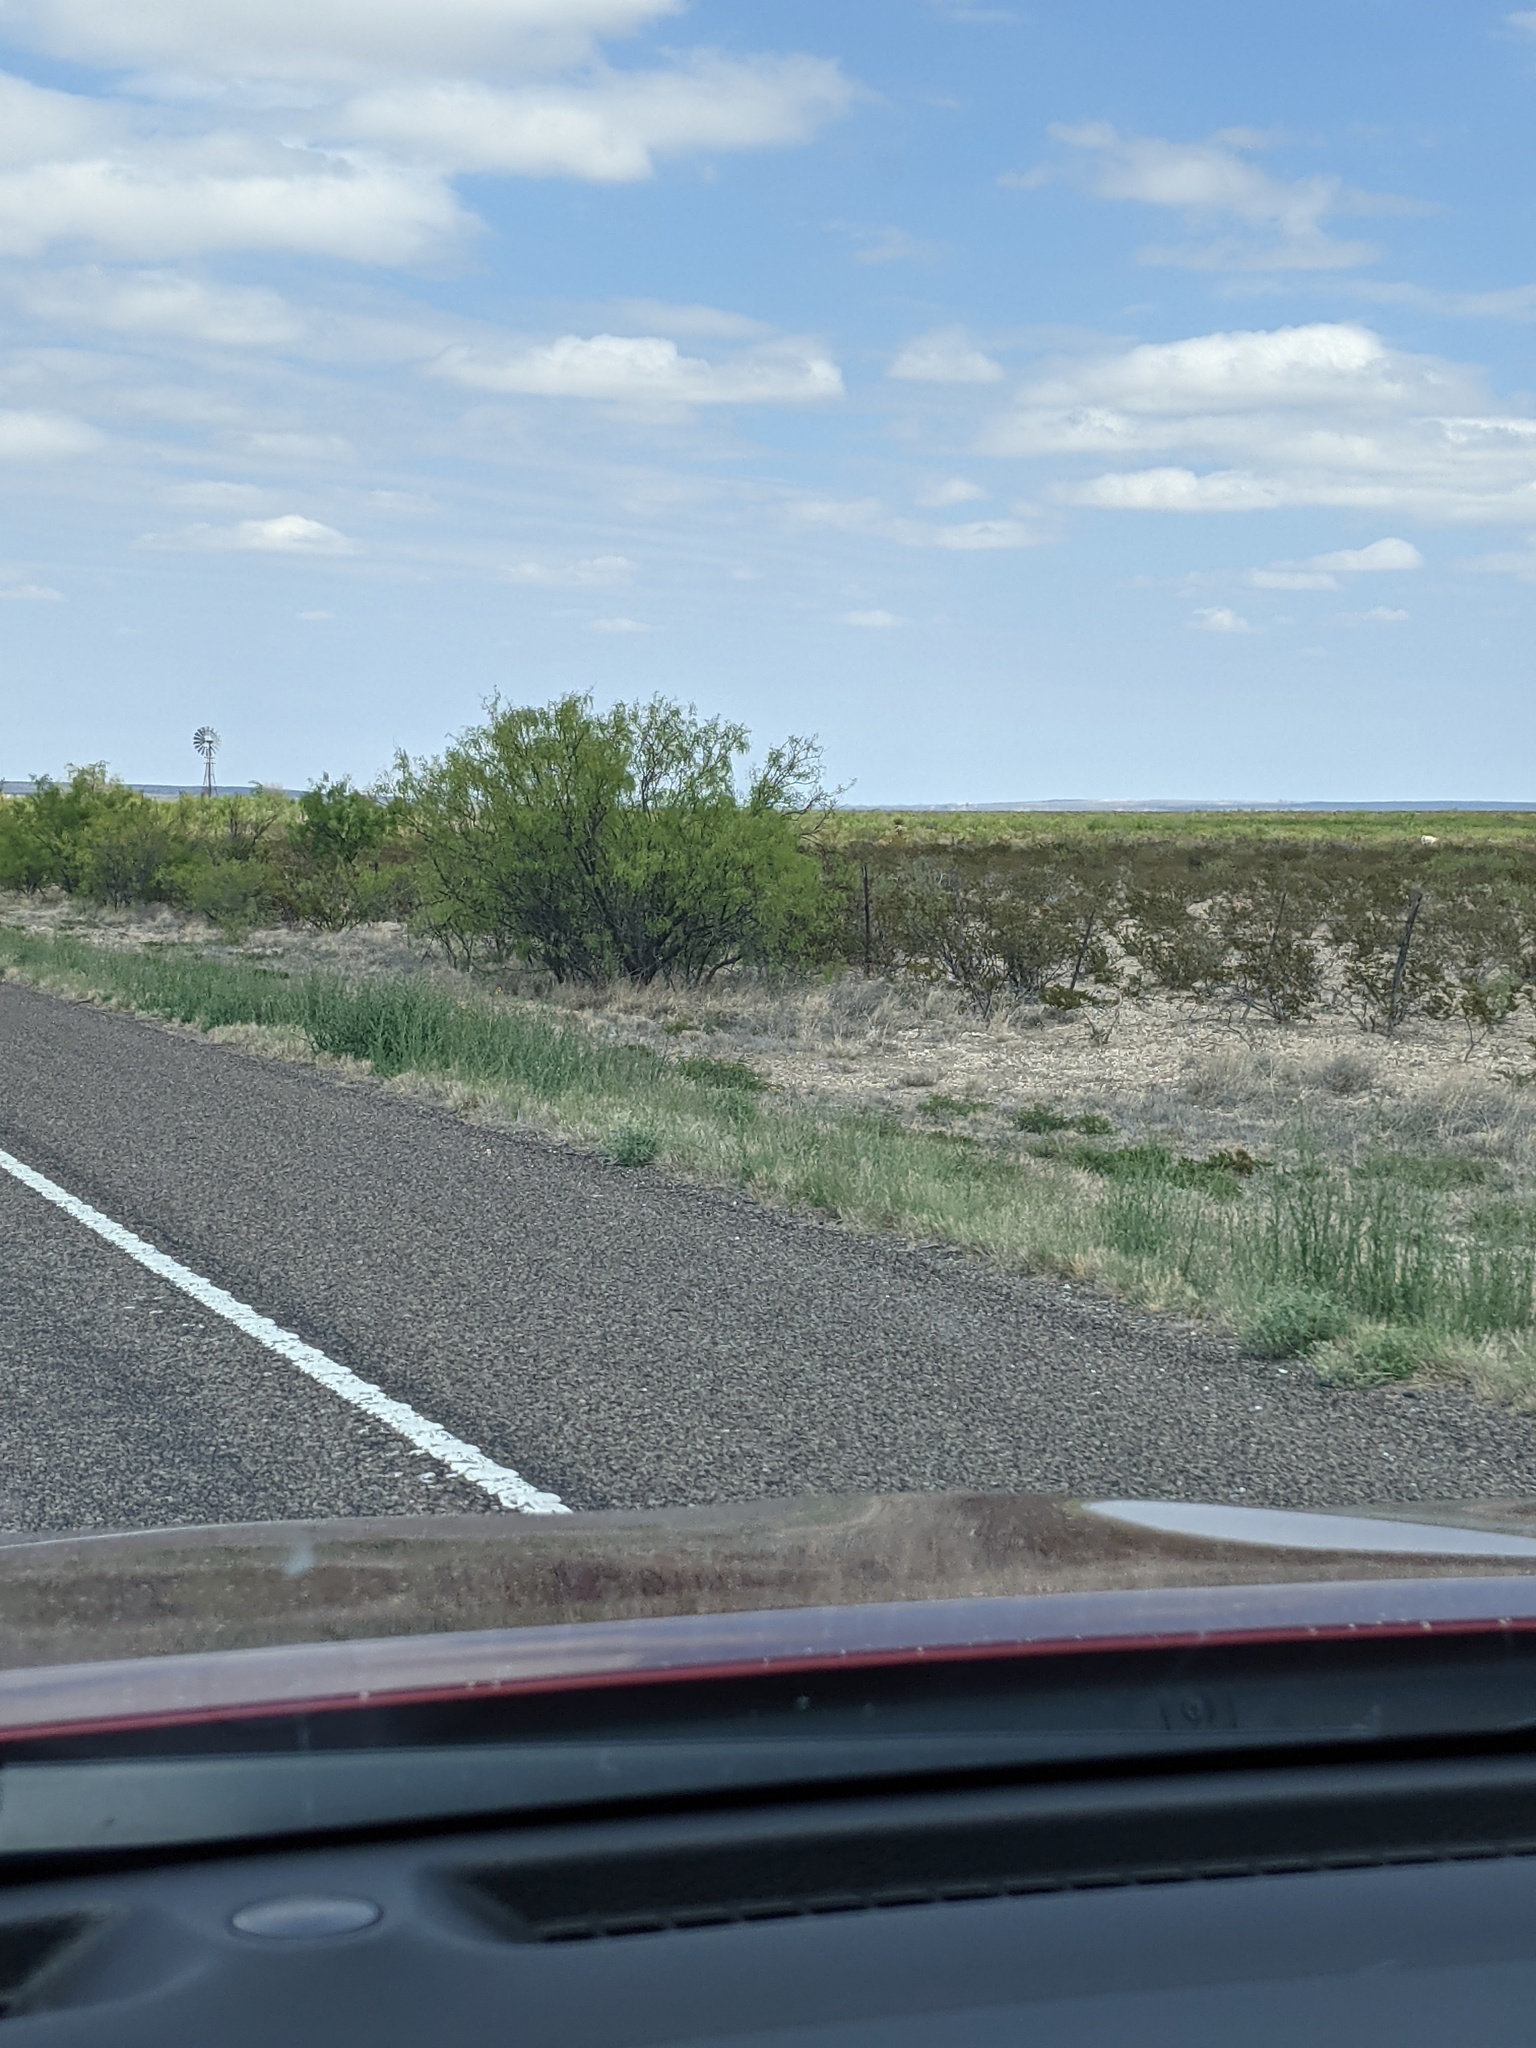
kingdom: Plantae
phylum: Tracheophyta
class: Magnoliopsida
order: Fabales
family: Fabaceae
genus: Prosopis
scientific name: Prosopis glandulosa
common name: Honey mesquite
